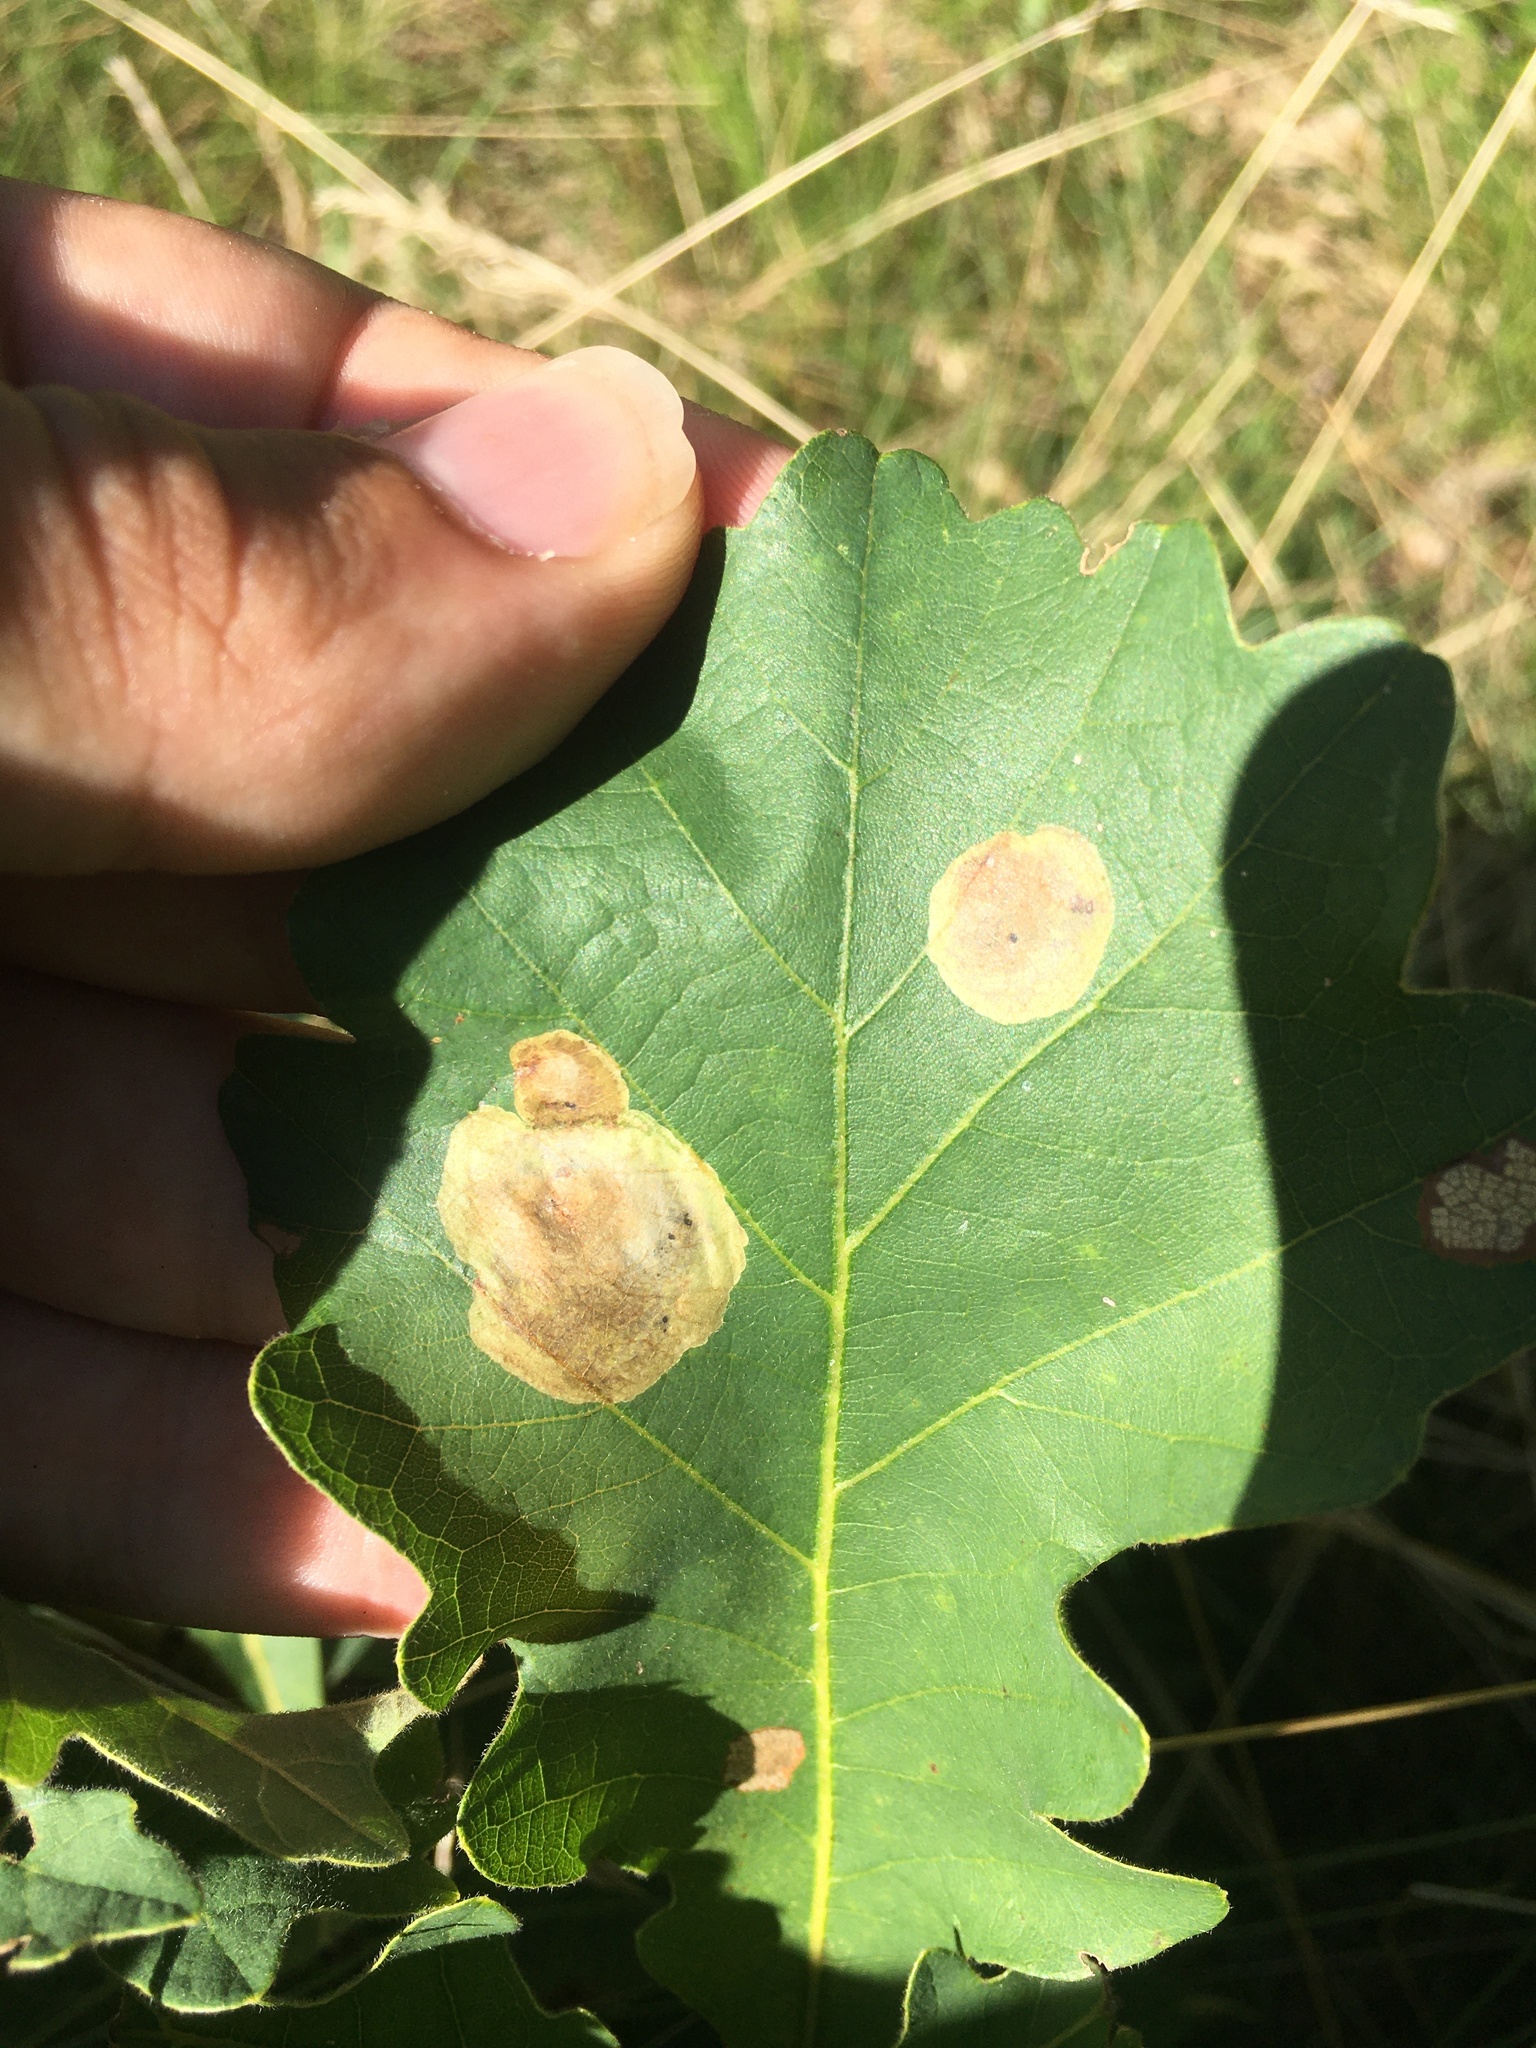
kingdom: Animalia
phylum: Arthropoda
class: Insecta
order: Lepidoptera
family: Gracillariidae
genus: Cameraria
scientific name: Cameraria
